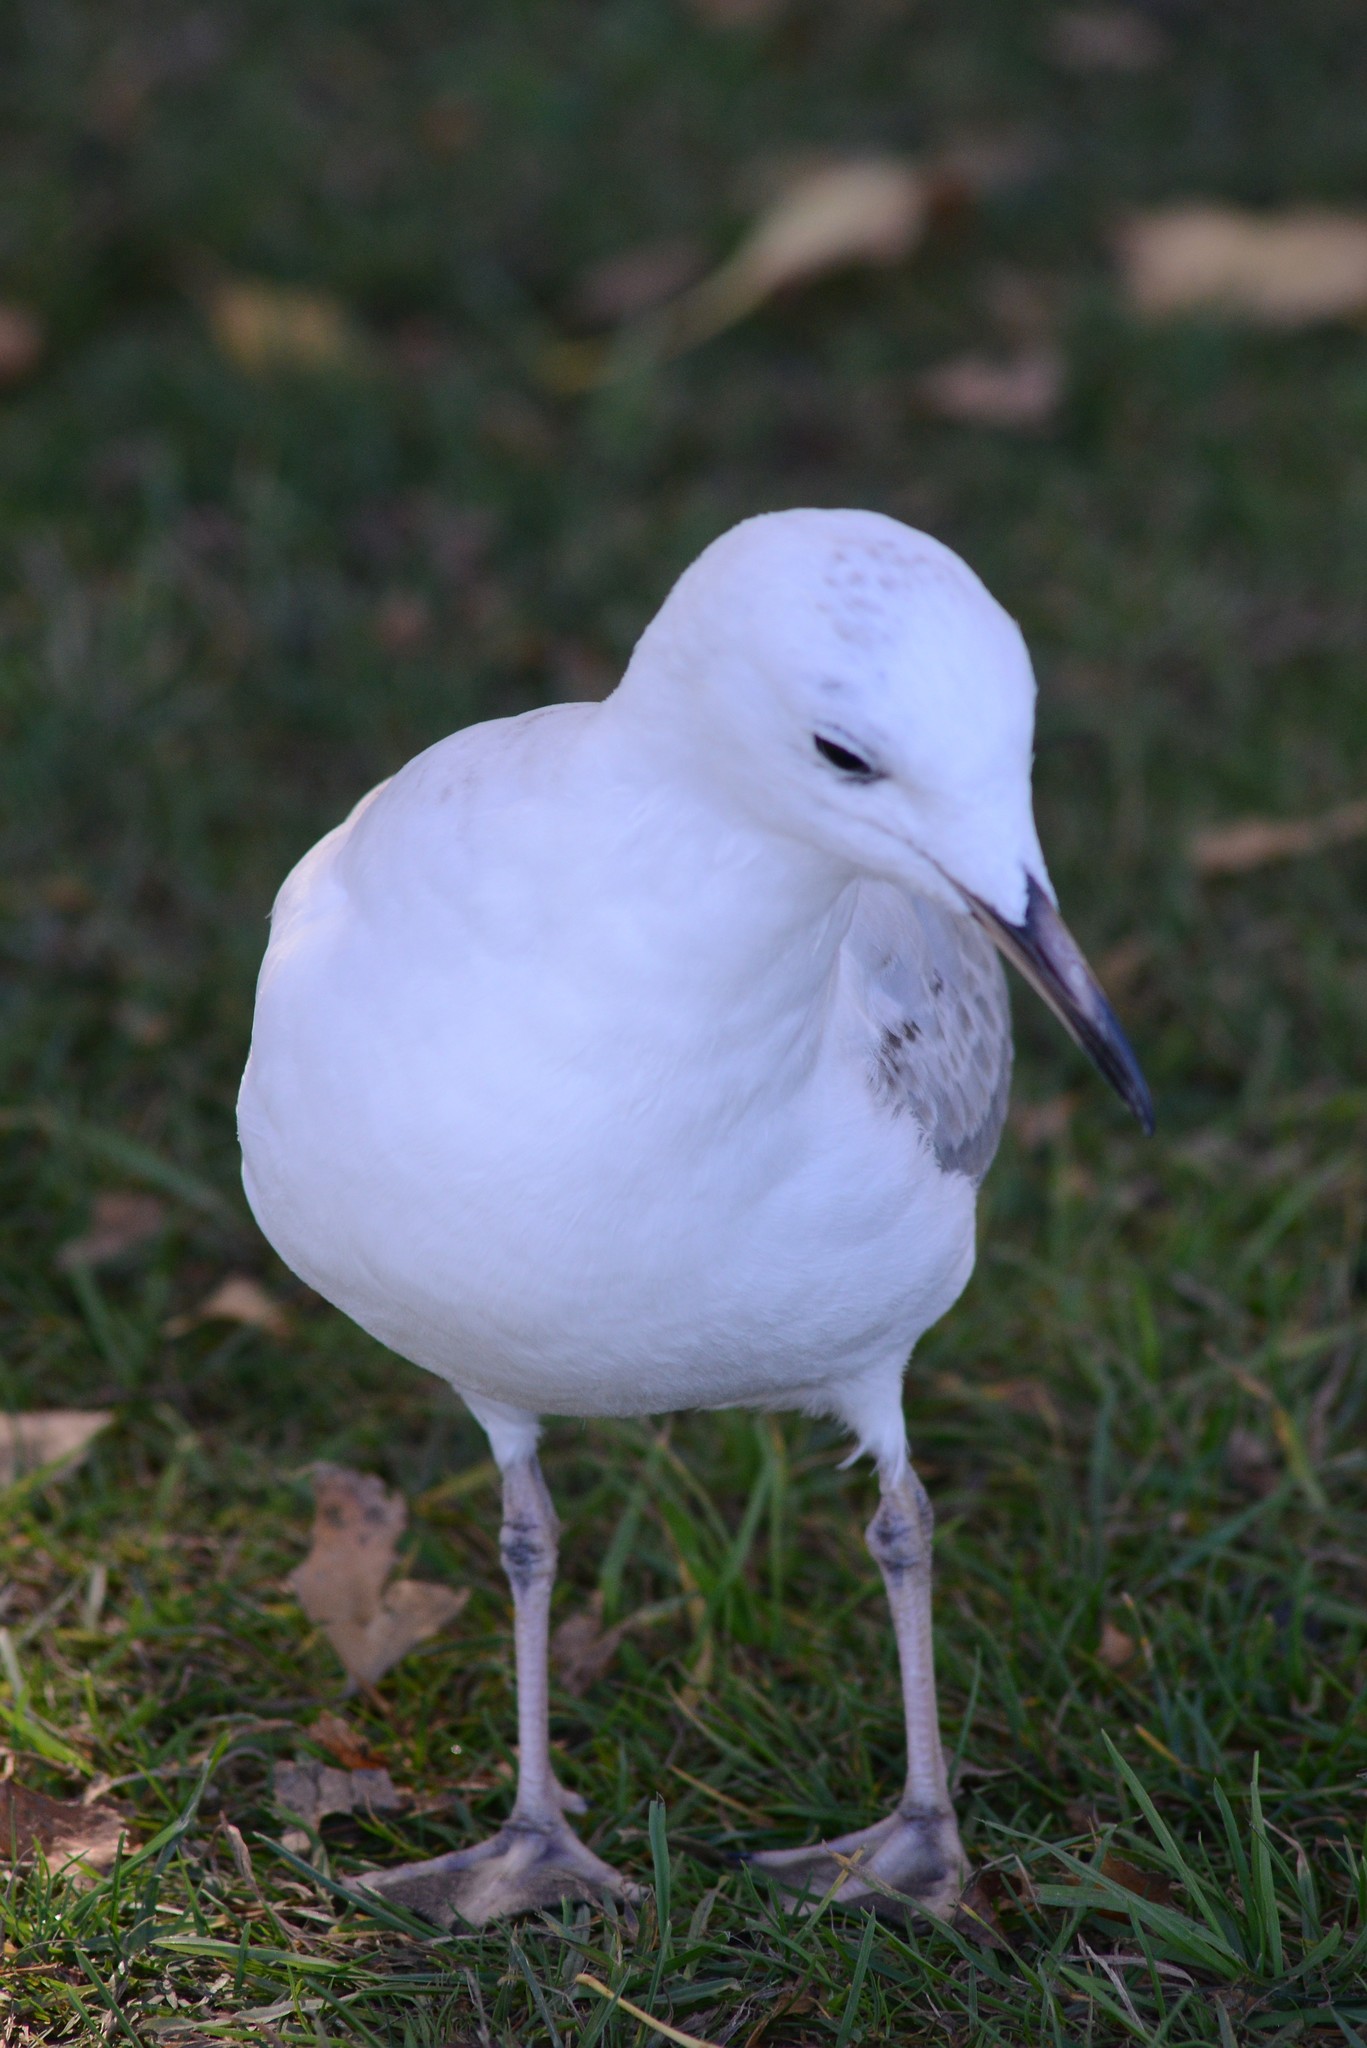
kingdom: Animalia
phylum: Chordata
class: Aves
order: Charadriiformes
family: Laridae
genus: Chroicocephalus
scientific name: Chroicocephalus bulleri
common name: Black-billed gull
